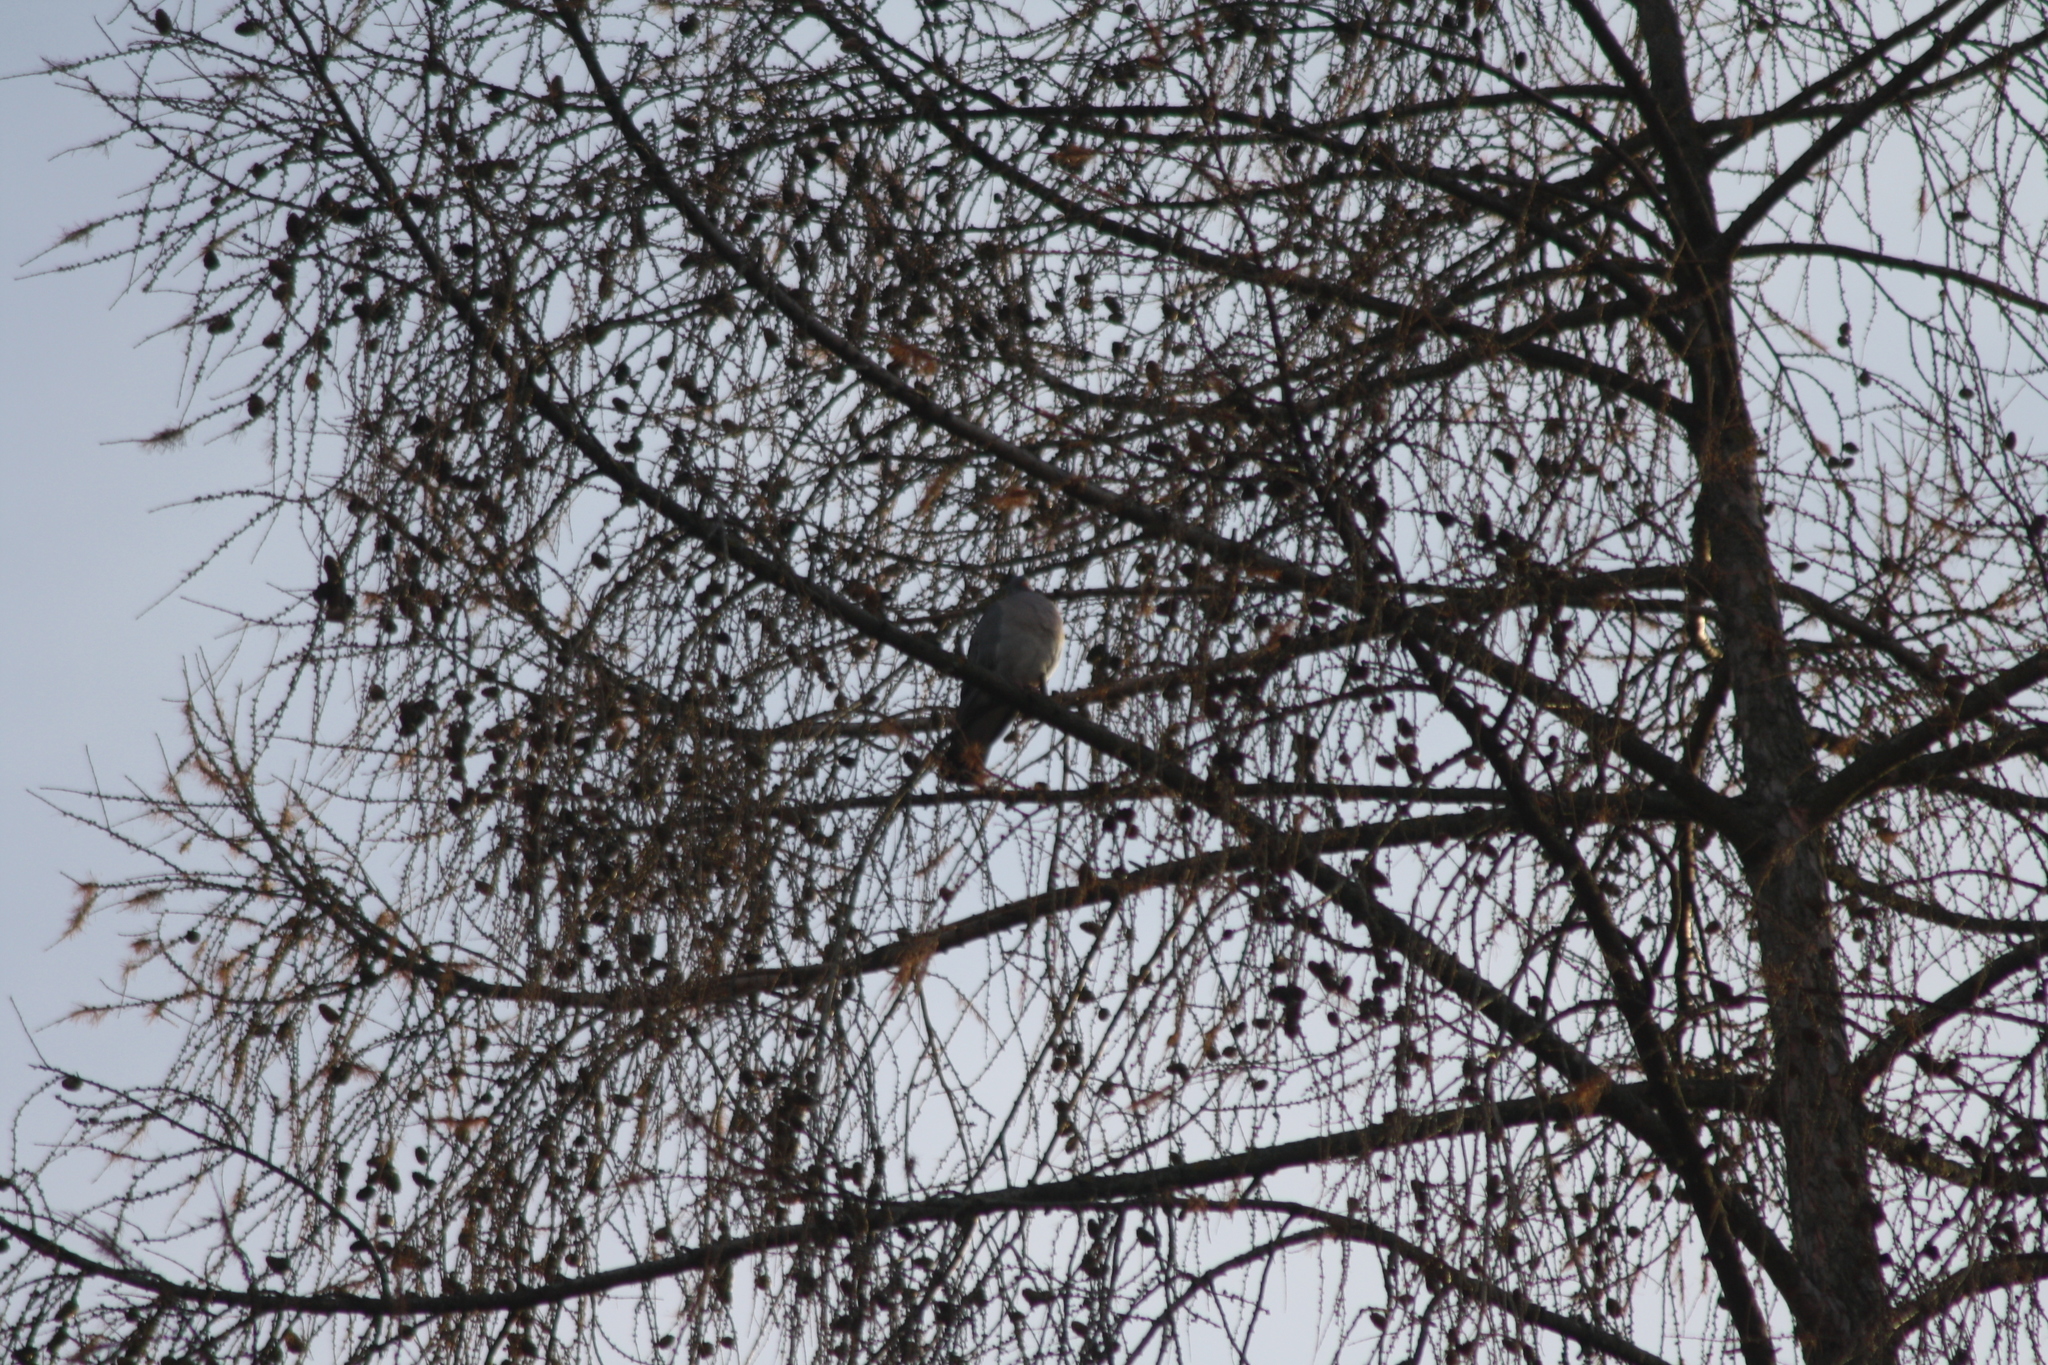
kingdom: Animalia
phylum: Chordata
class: Aves
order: Columbiformes
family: Columbidae
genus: Columba
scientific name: Columba palumbus
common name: Common wood pigeon
